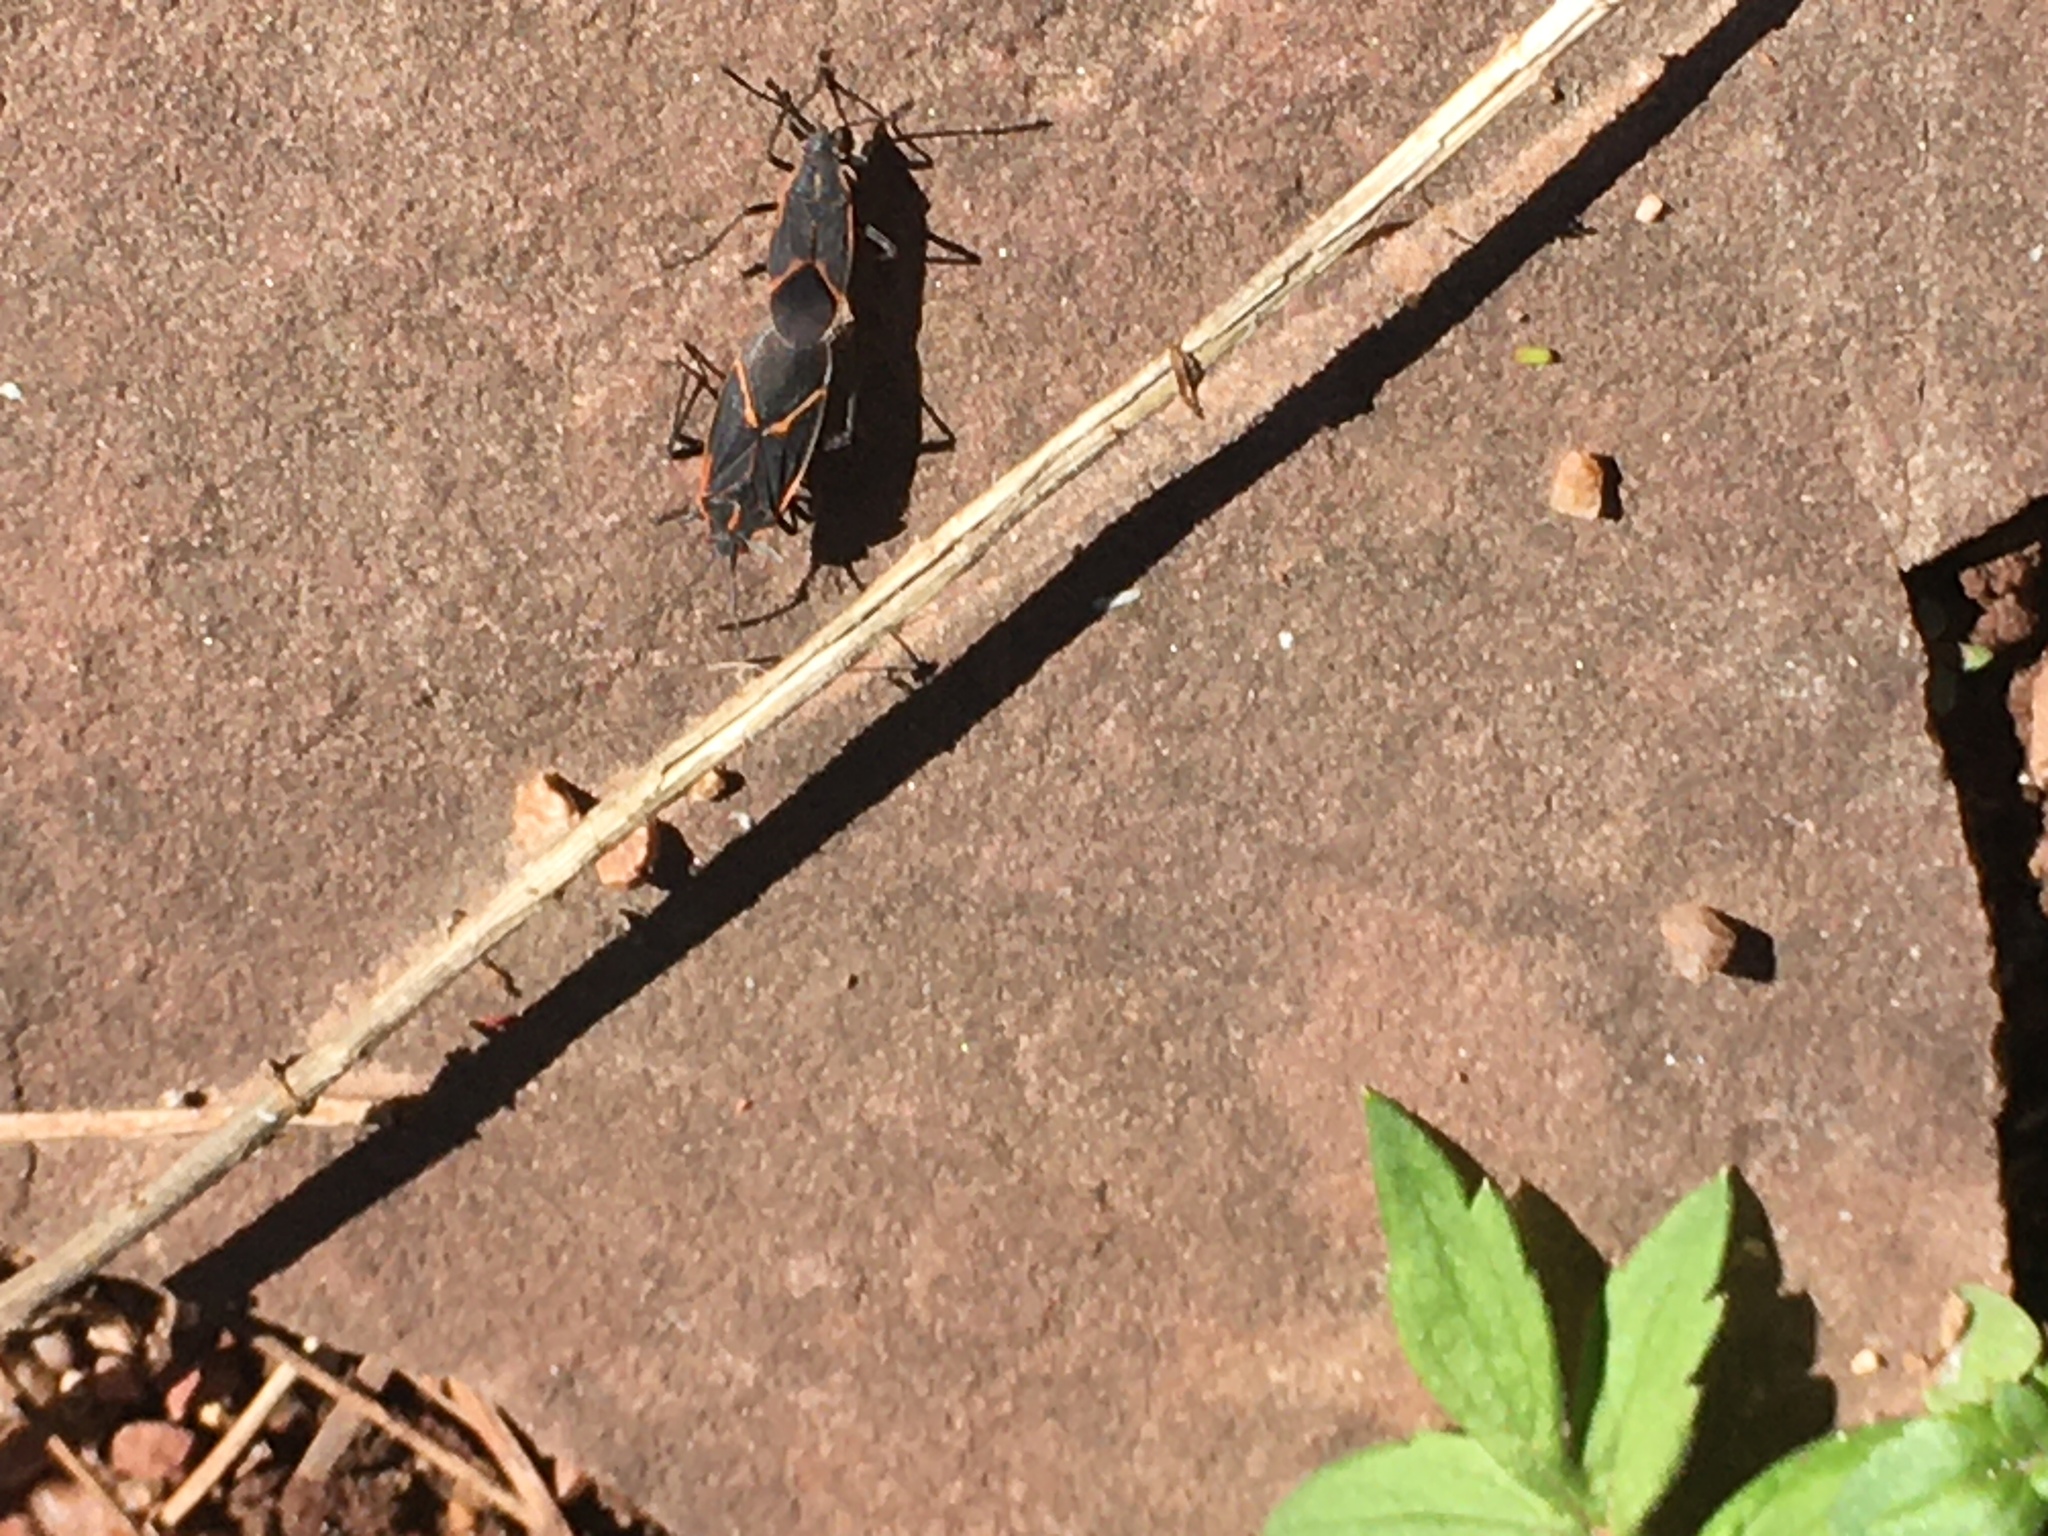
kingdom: Animalia
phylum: Arthropoda
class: Insecta
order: Hemiptera
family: Rhopalidae
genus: Boisea
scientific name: Boisea trivittata
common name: Boxelder bug
